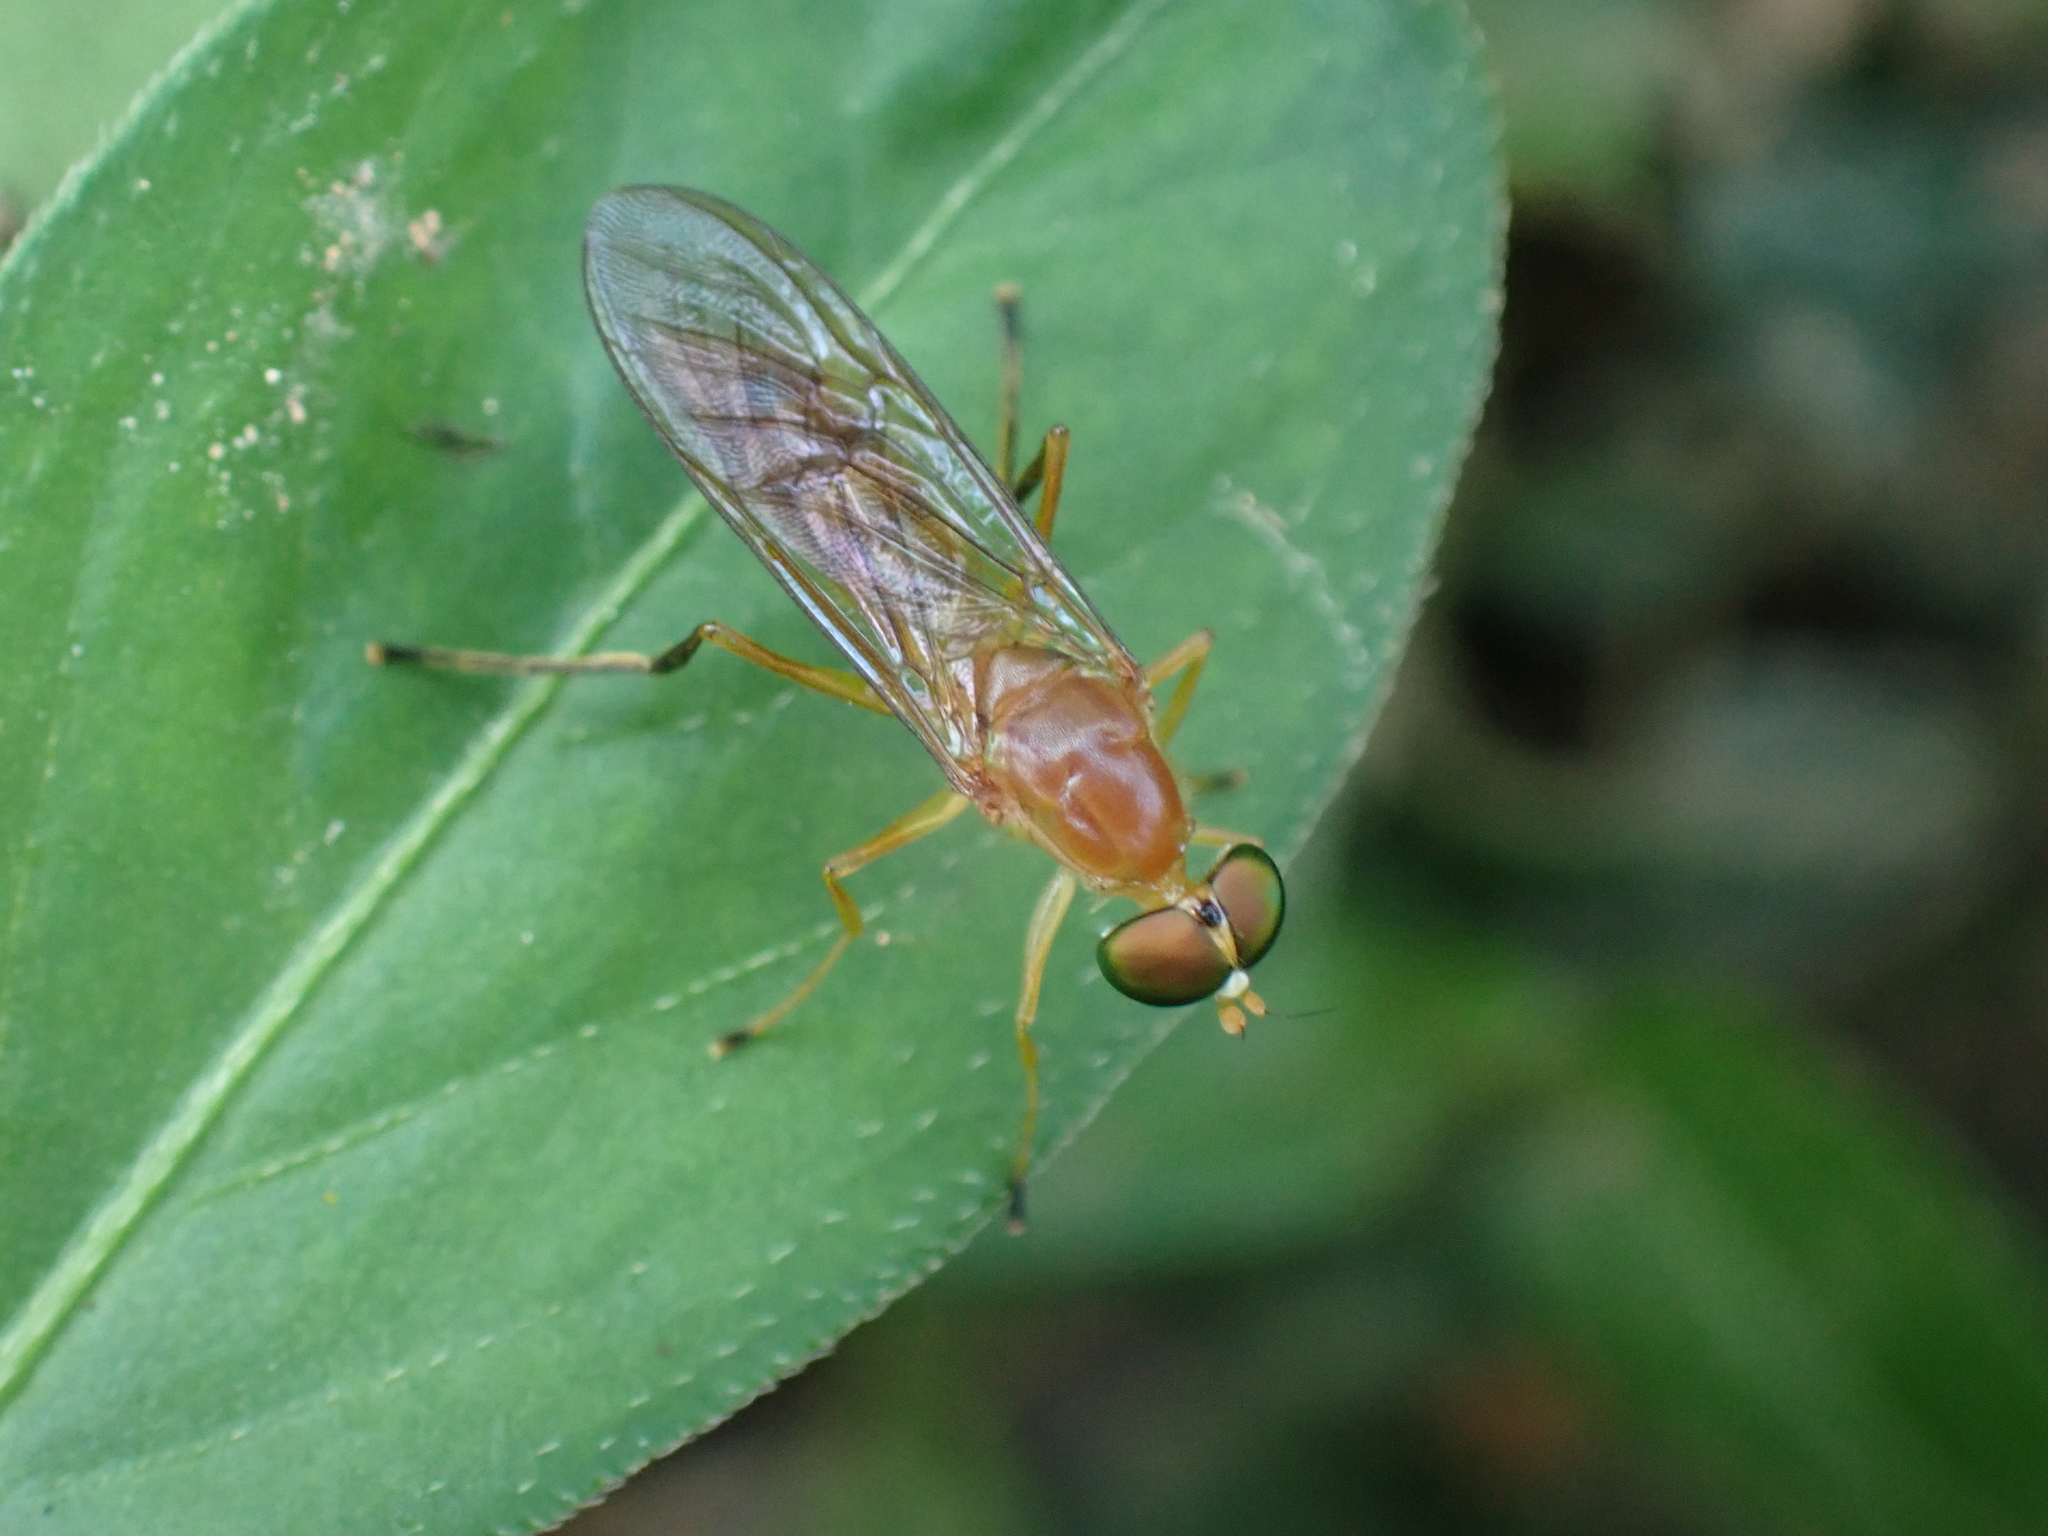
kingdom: Animalia
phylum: Arthropoda
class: Insecta
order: Diptera
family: Stratiomyidae
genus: Ptecticus
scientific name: Ptecticus trivittatus
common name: Compost fly
